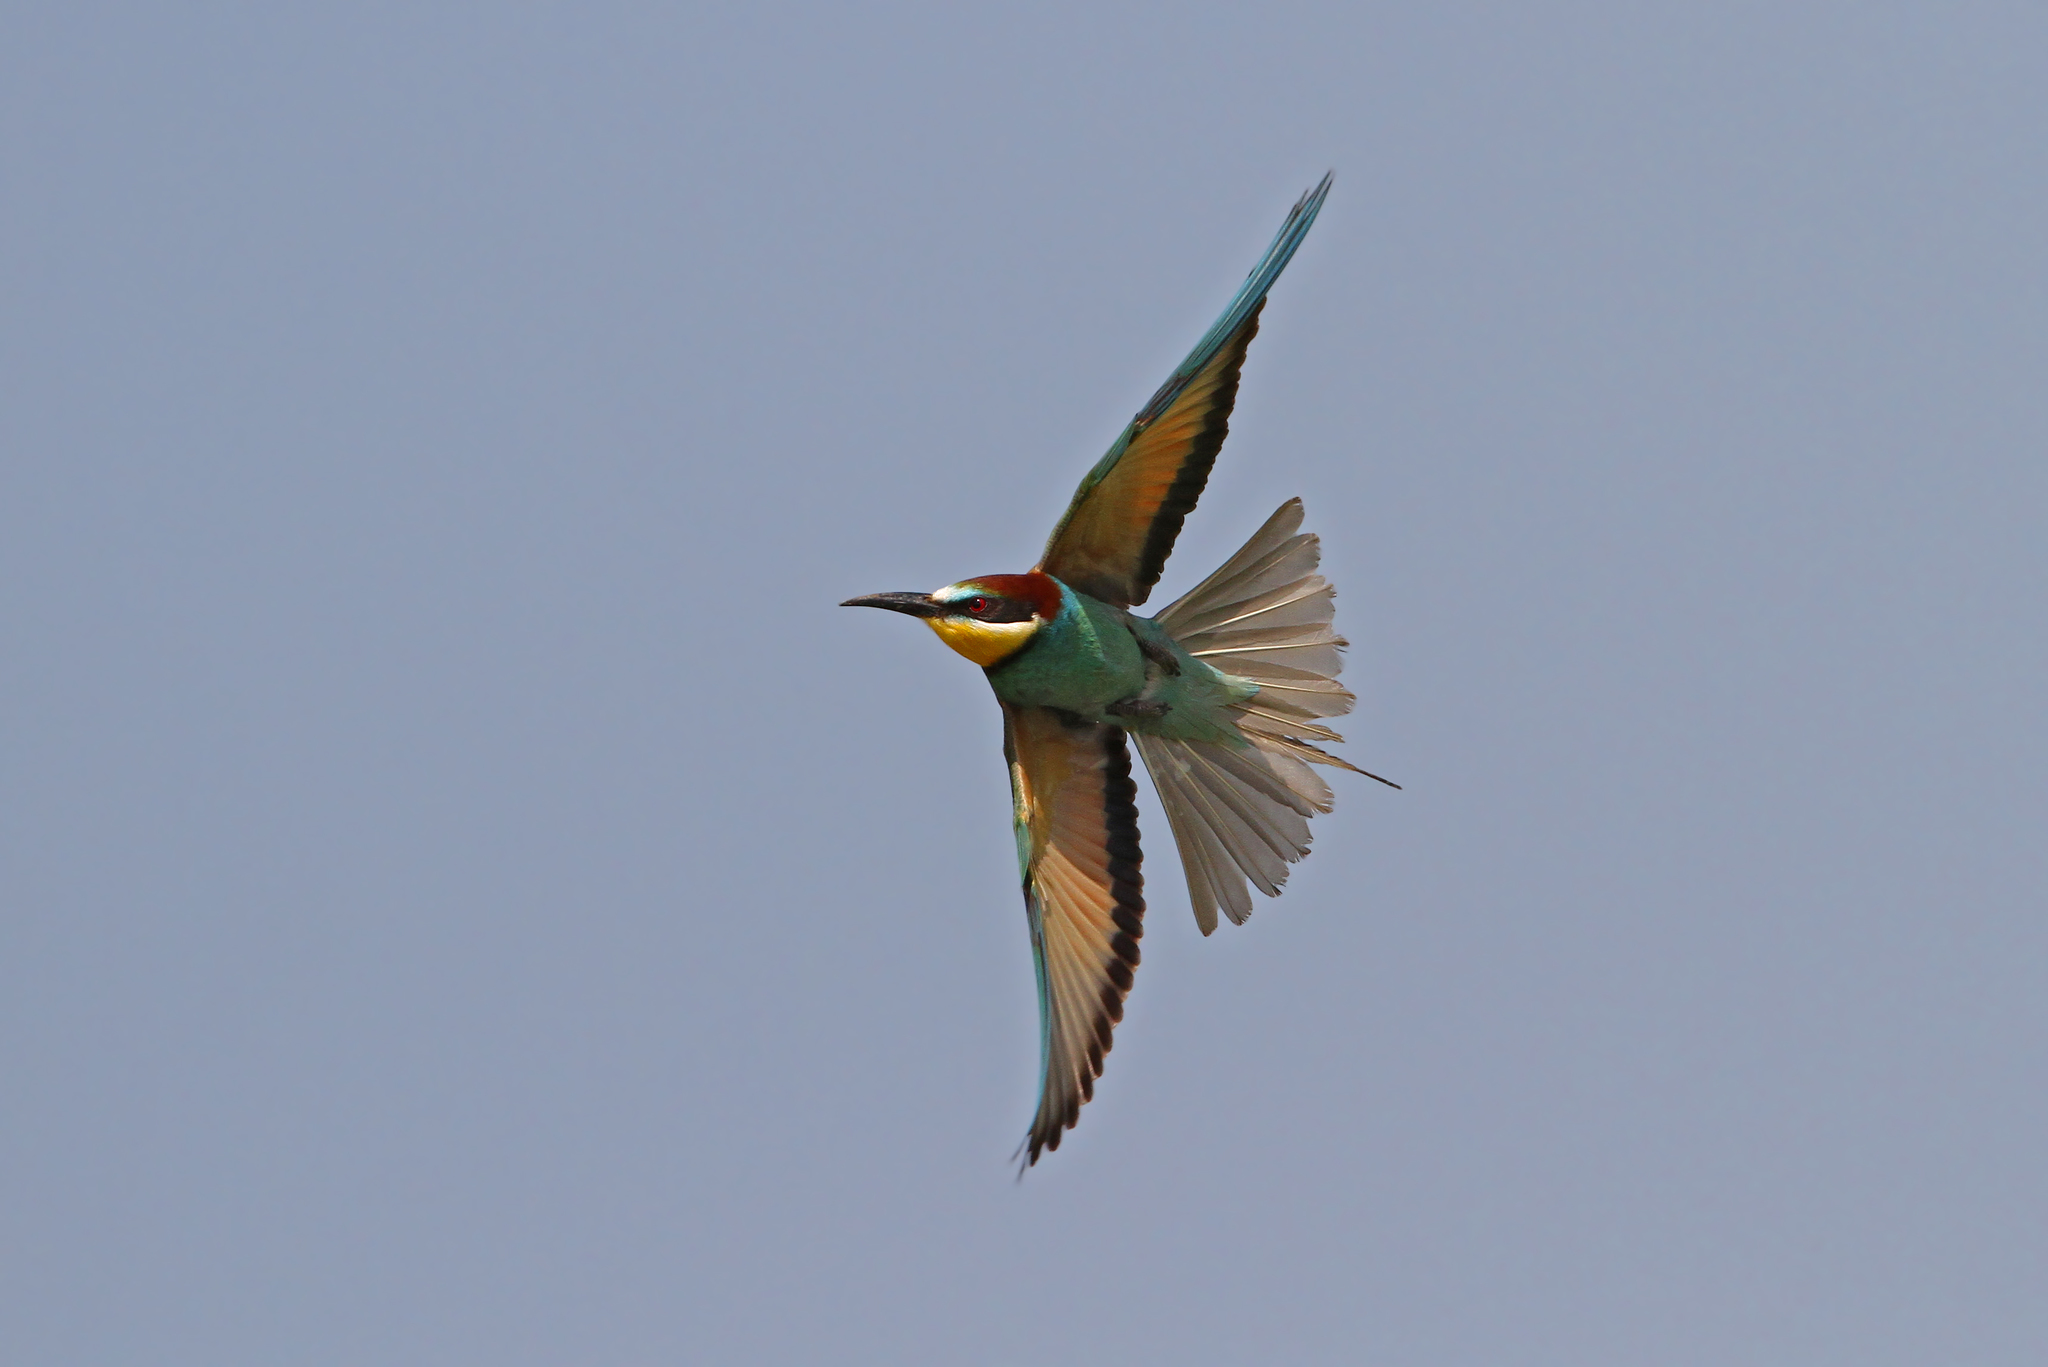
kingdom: Animalia
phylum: Chordata
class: Aves
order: Coraciiformes
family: Meropidae
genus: Merops
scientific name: Merops apiaster
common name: European bee-eater
